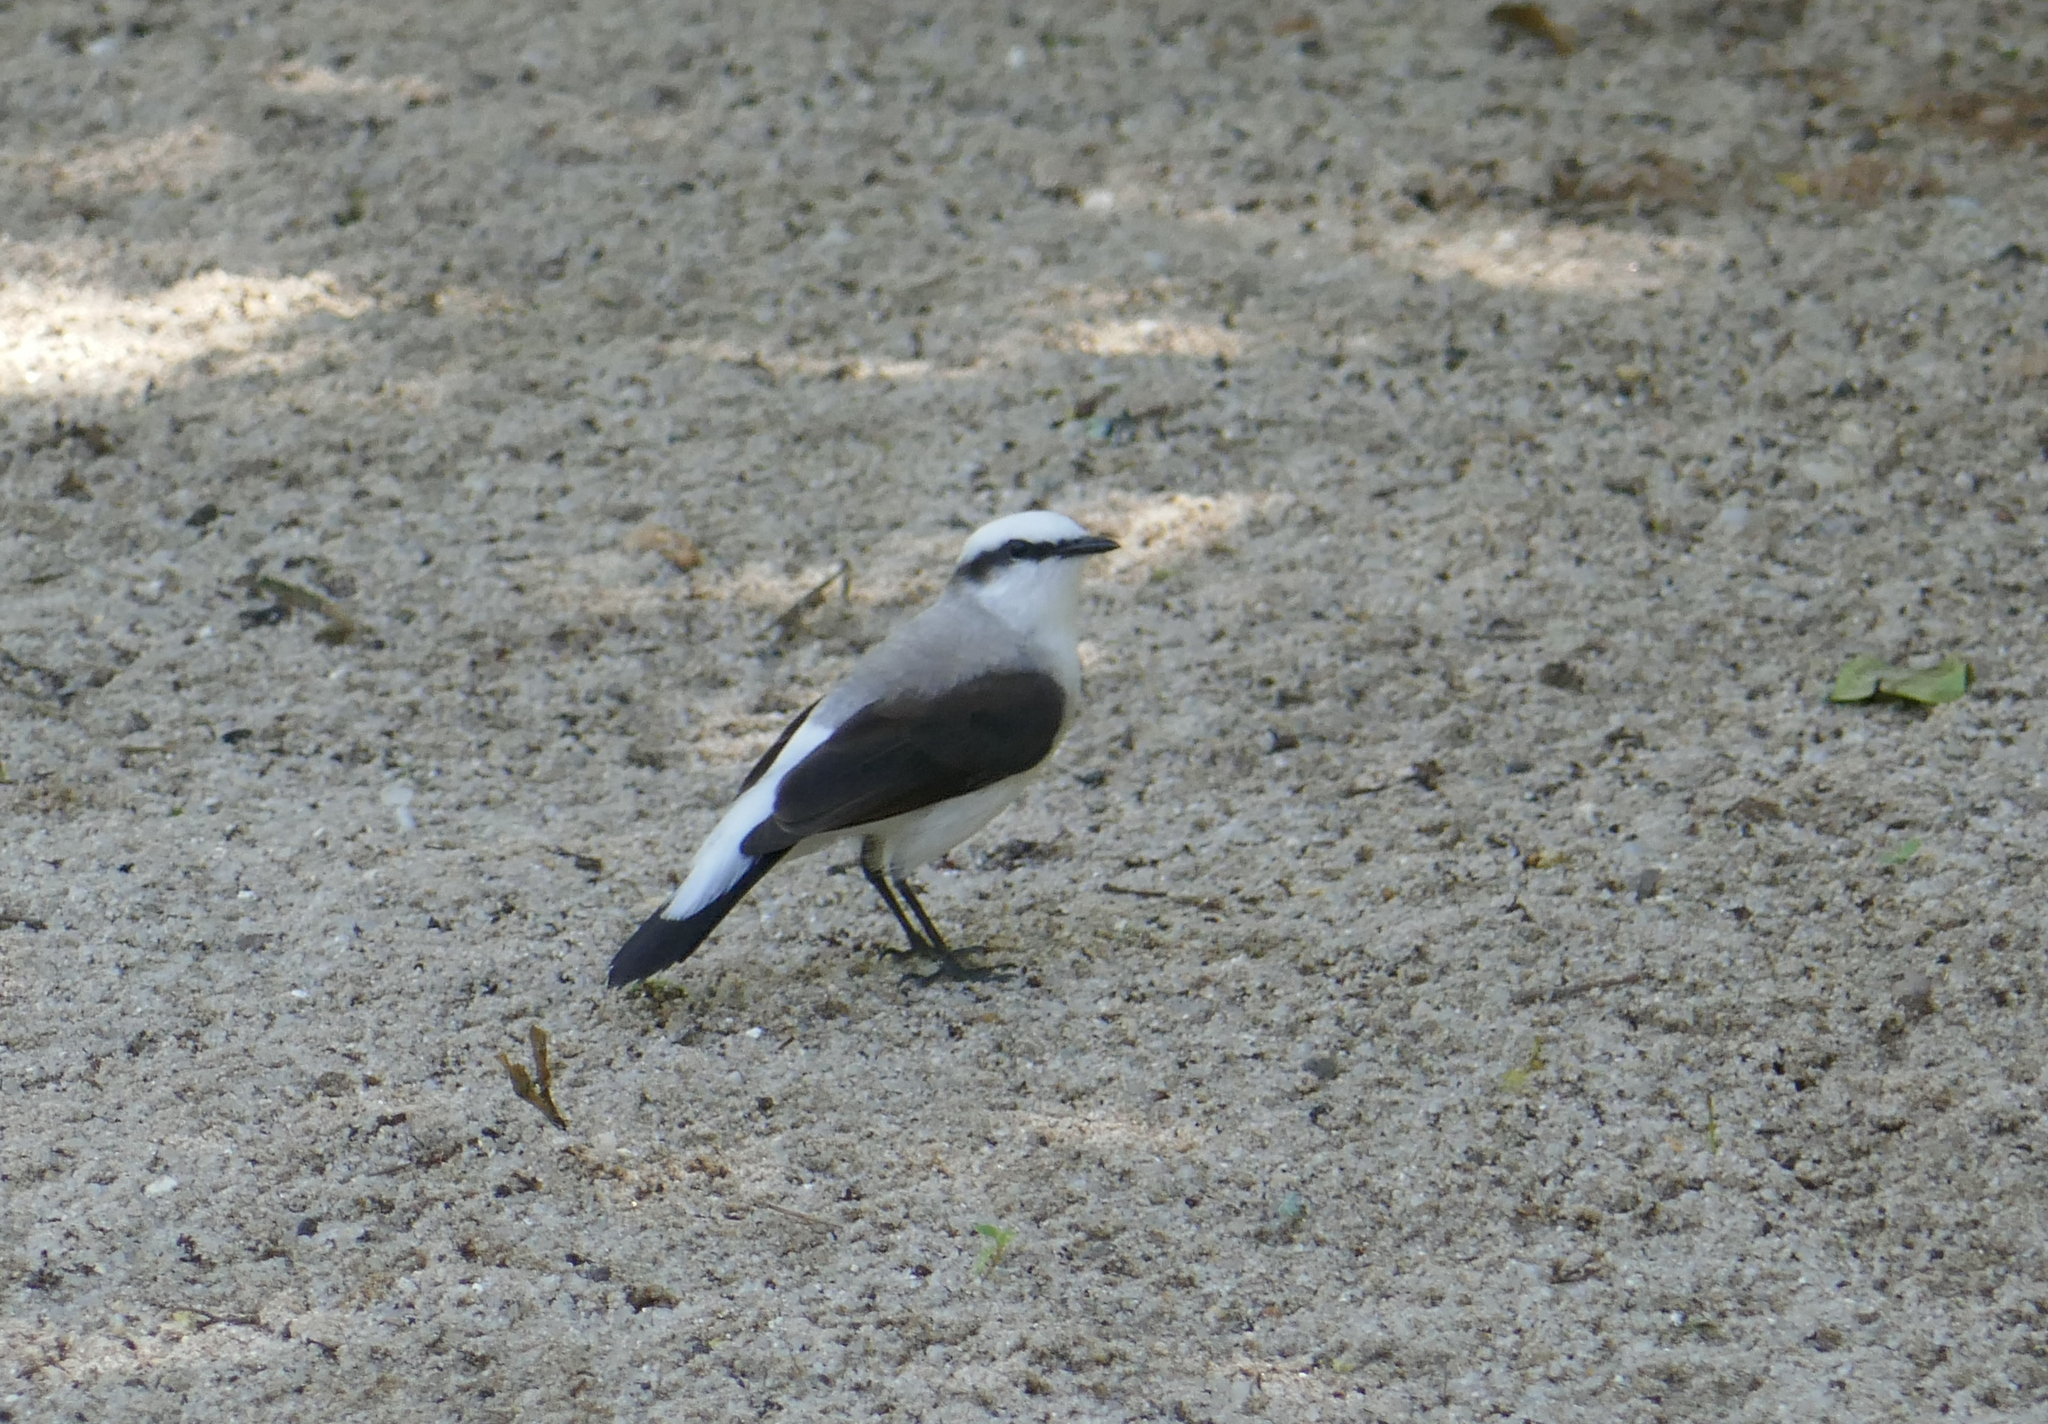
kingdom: Animalia
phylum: Chordata
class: Aves
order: Passeriformes
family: Tyrannidae
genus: Fluvicola
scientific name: Fluvicola nengeta
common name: Masked water tyrant
